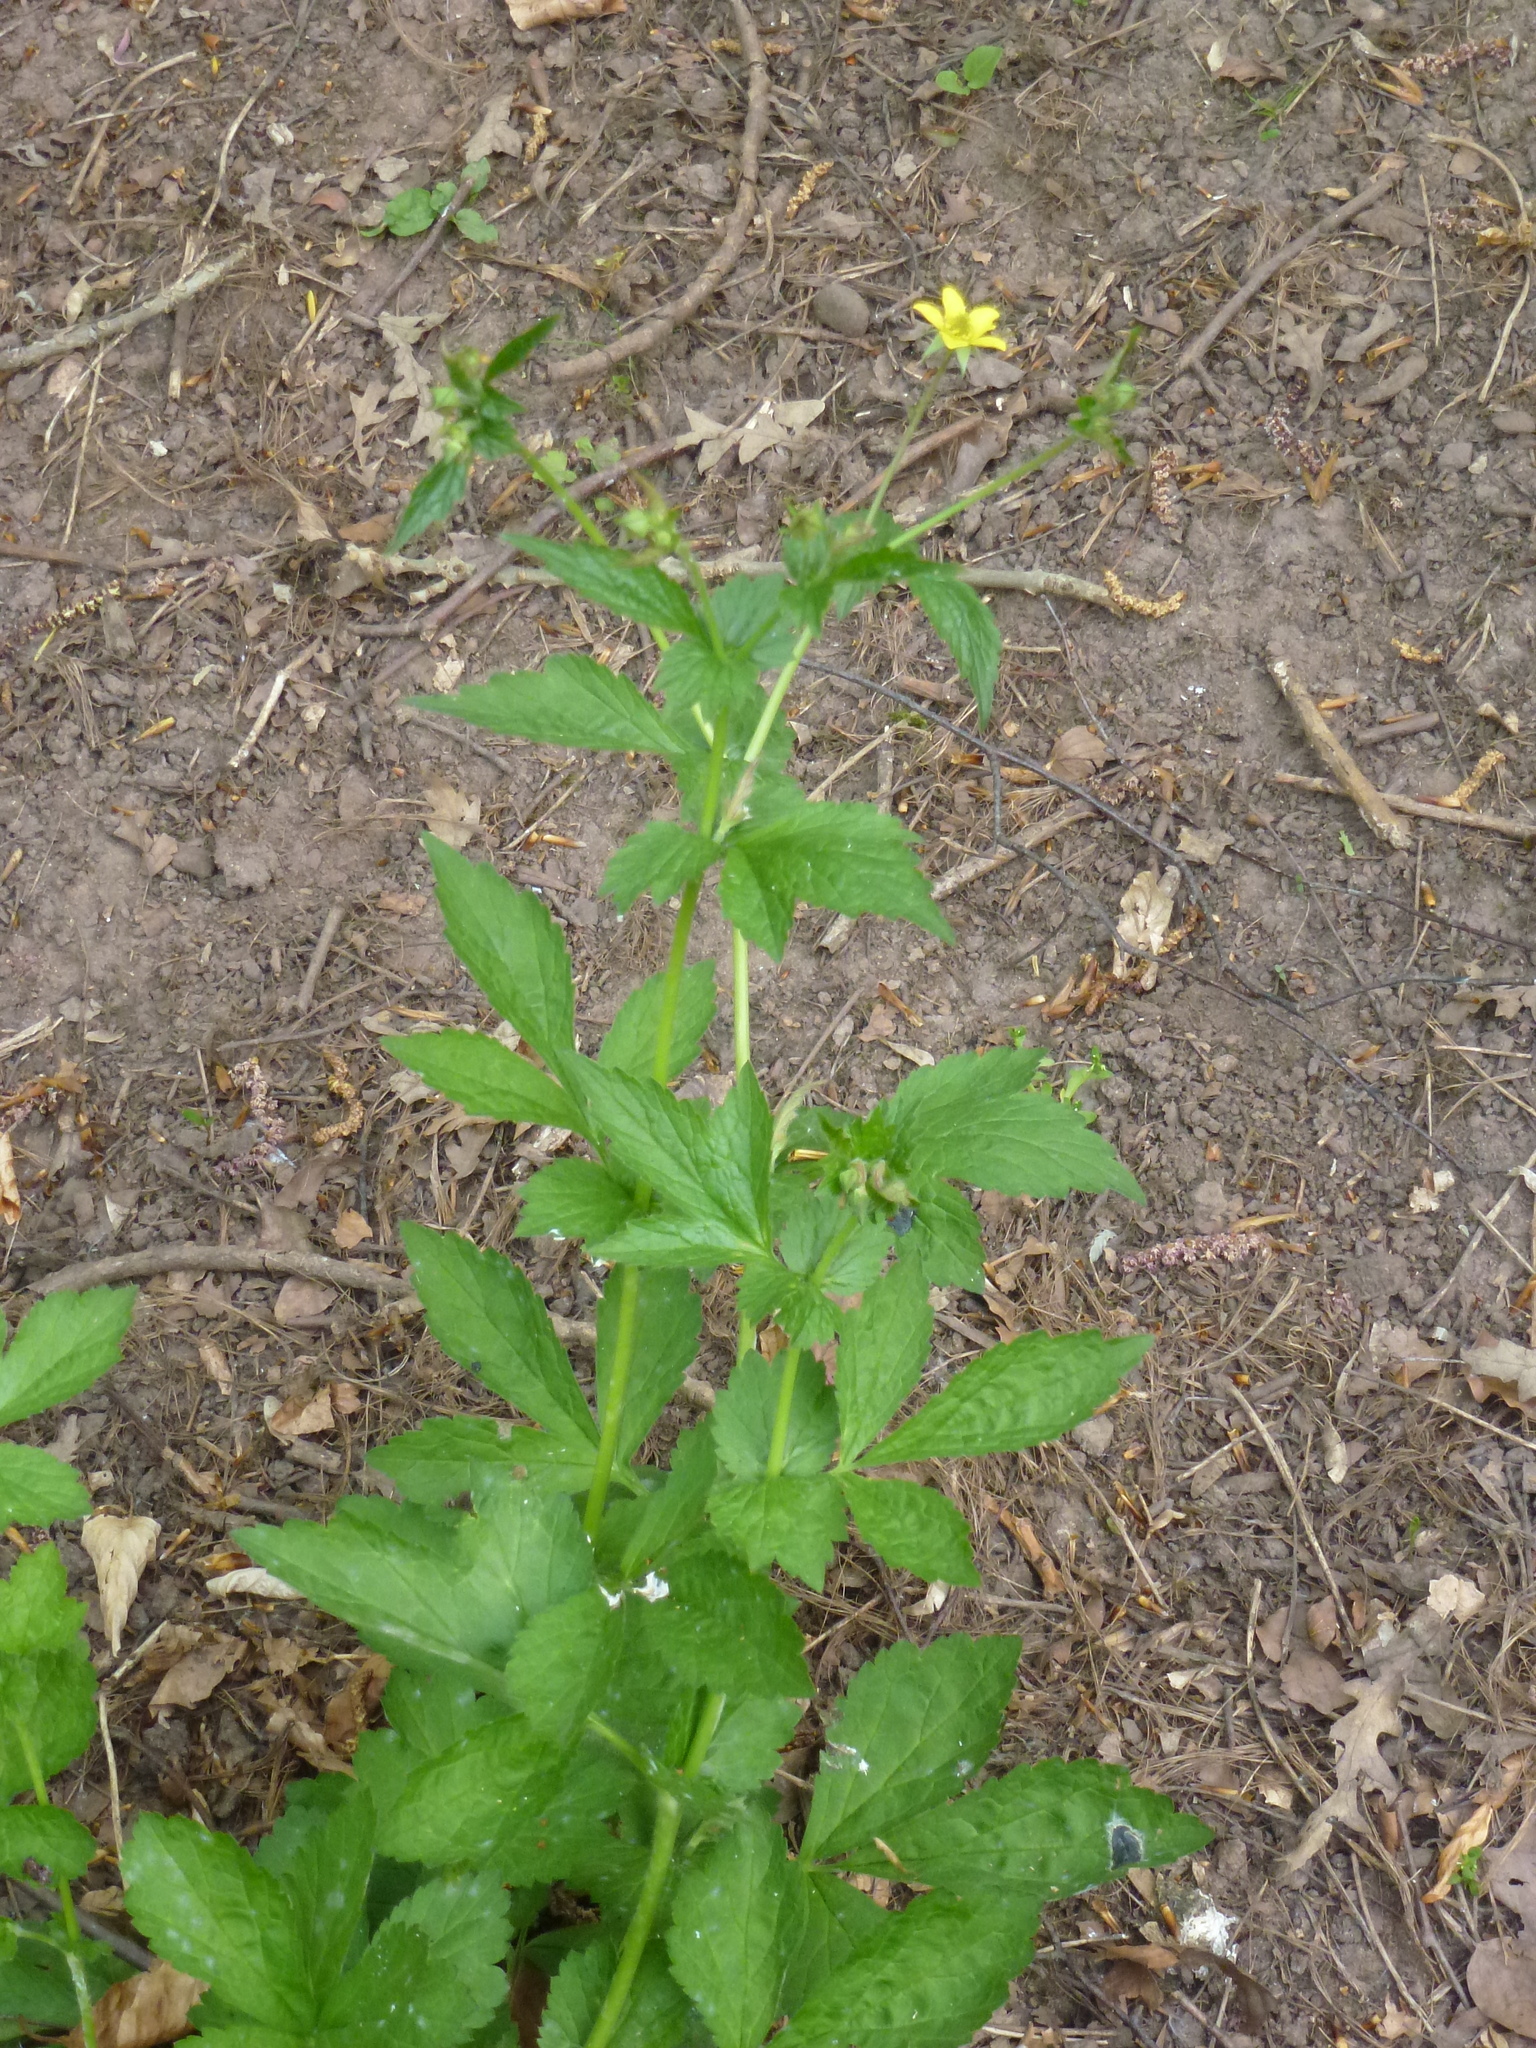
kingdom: Plantae
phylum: Tracheophyta
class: Magnoliopsida
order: Rosales
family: Rosaceae
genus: Geum
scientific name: Geum urbanum
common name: Wood avens
